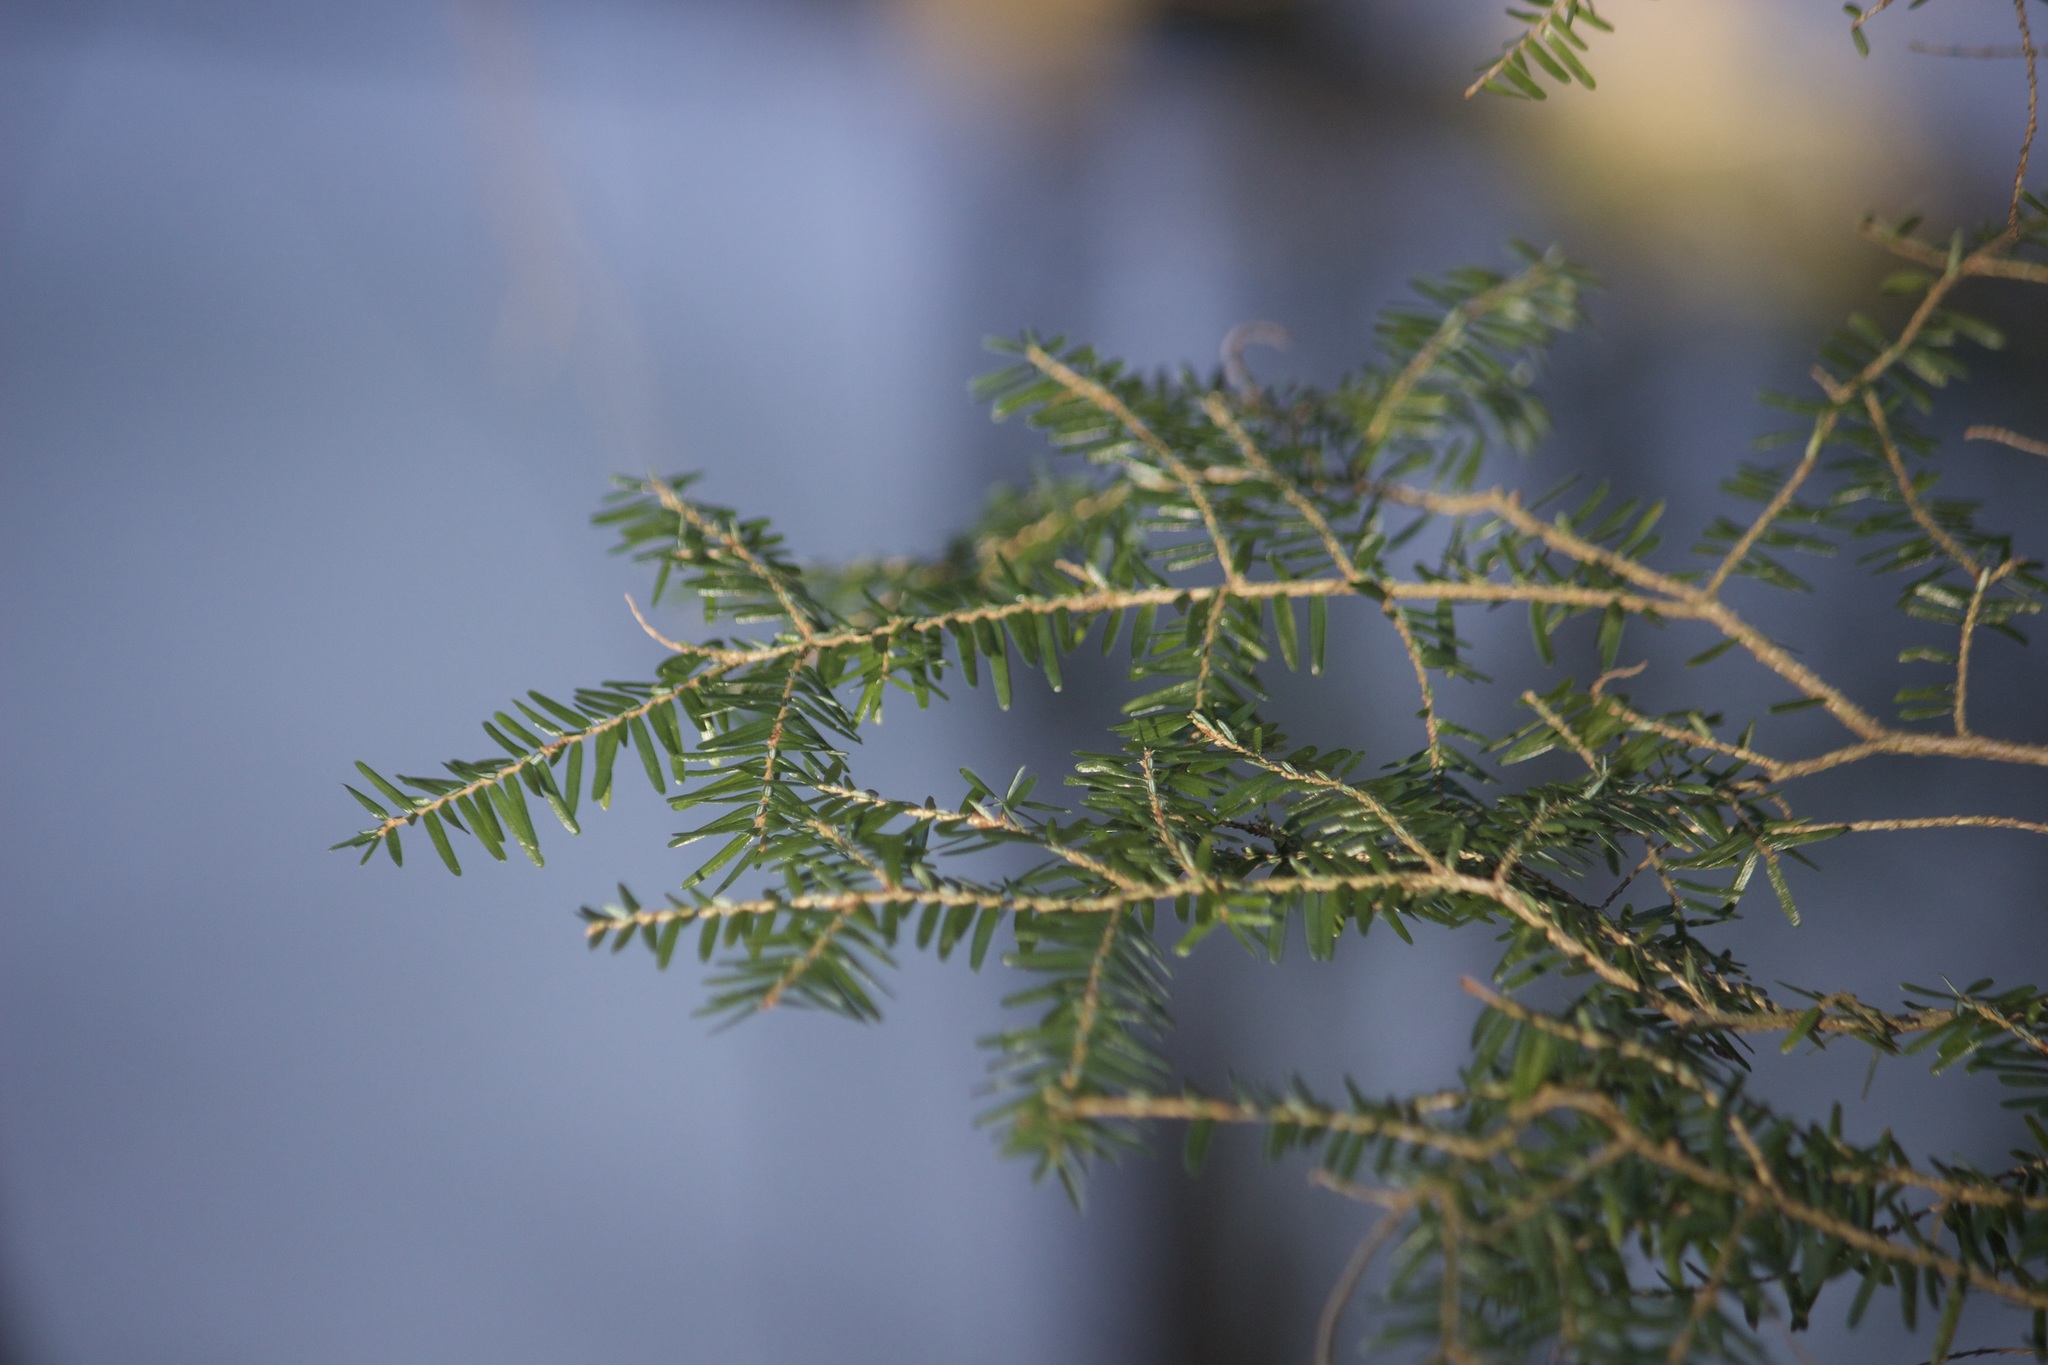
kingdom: Plantae
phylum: Tracheophyta
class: Pinopsida
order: Pinales
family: Pinaceae
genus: Tsuga
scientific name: Tsuga canadensis
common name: Eastern hemlock
